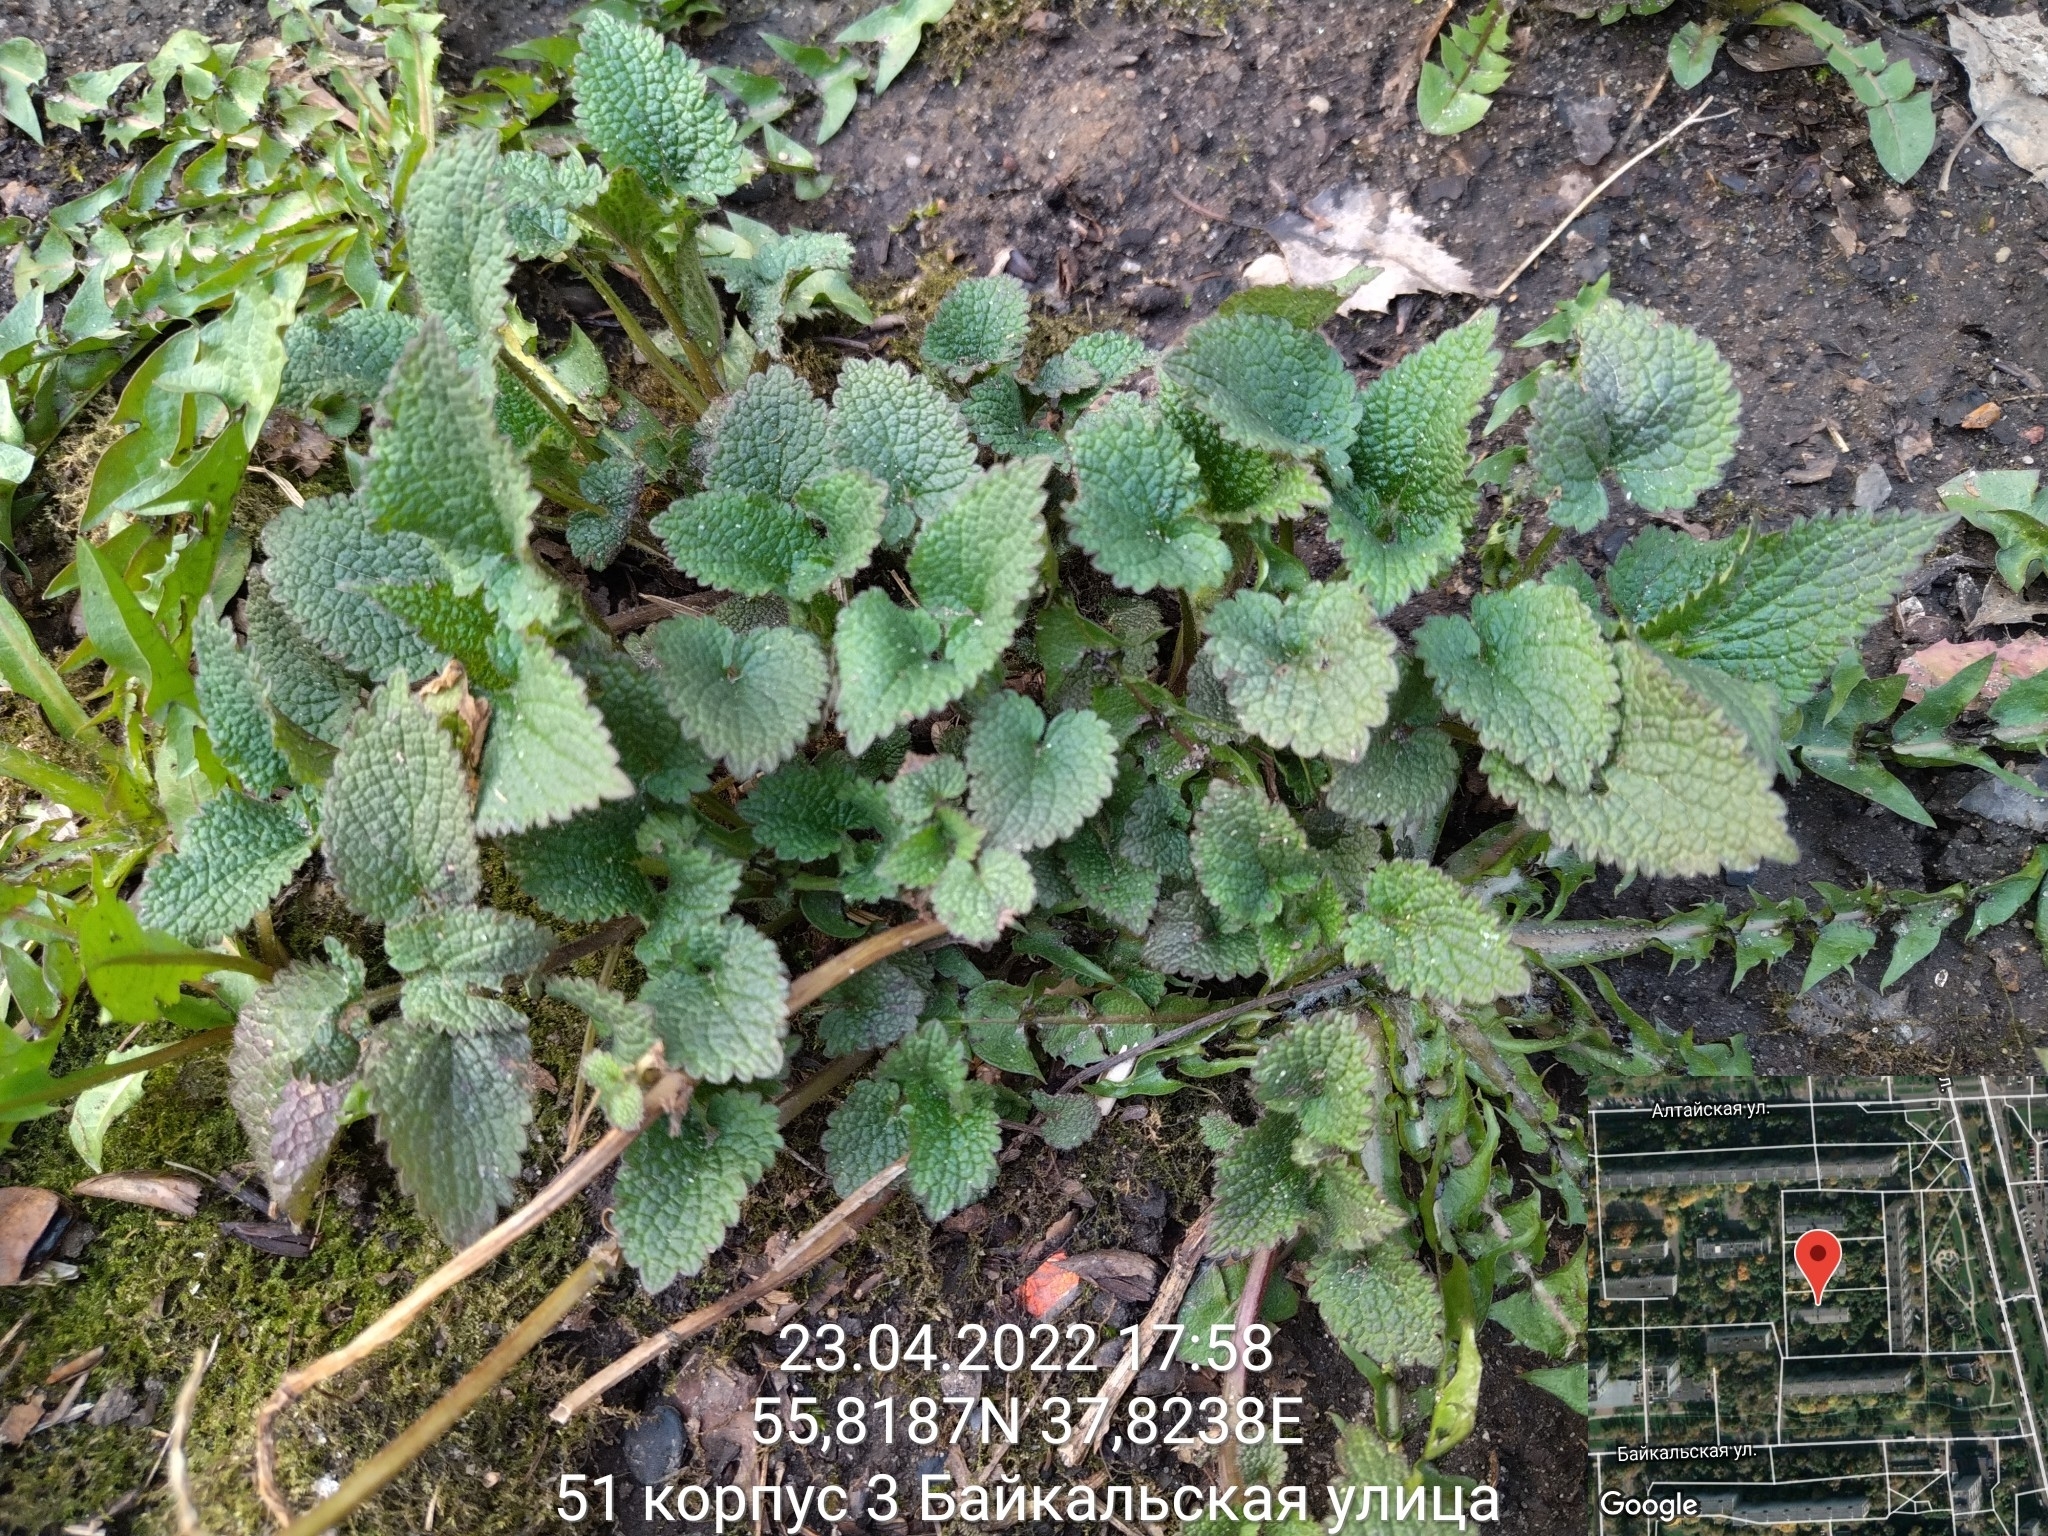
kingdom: Plantae
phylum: Tracheophyta
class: Magnoliopsida
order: Lamiales
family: Lamiaceae
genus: Lamium
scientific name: Lamium album
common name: White dead-nettle
